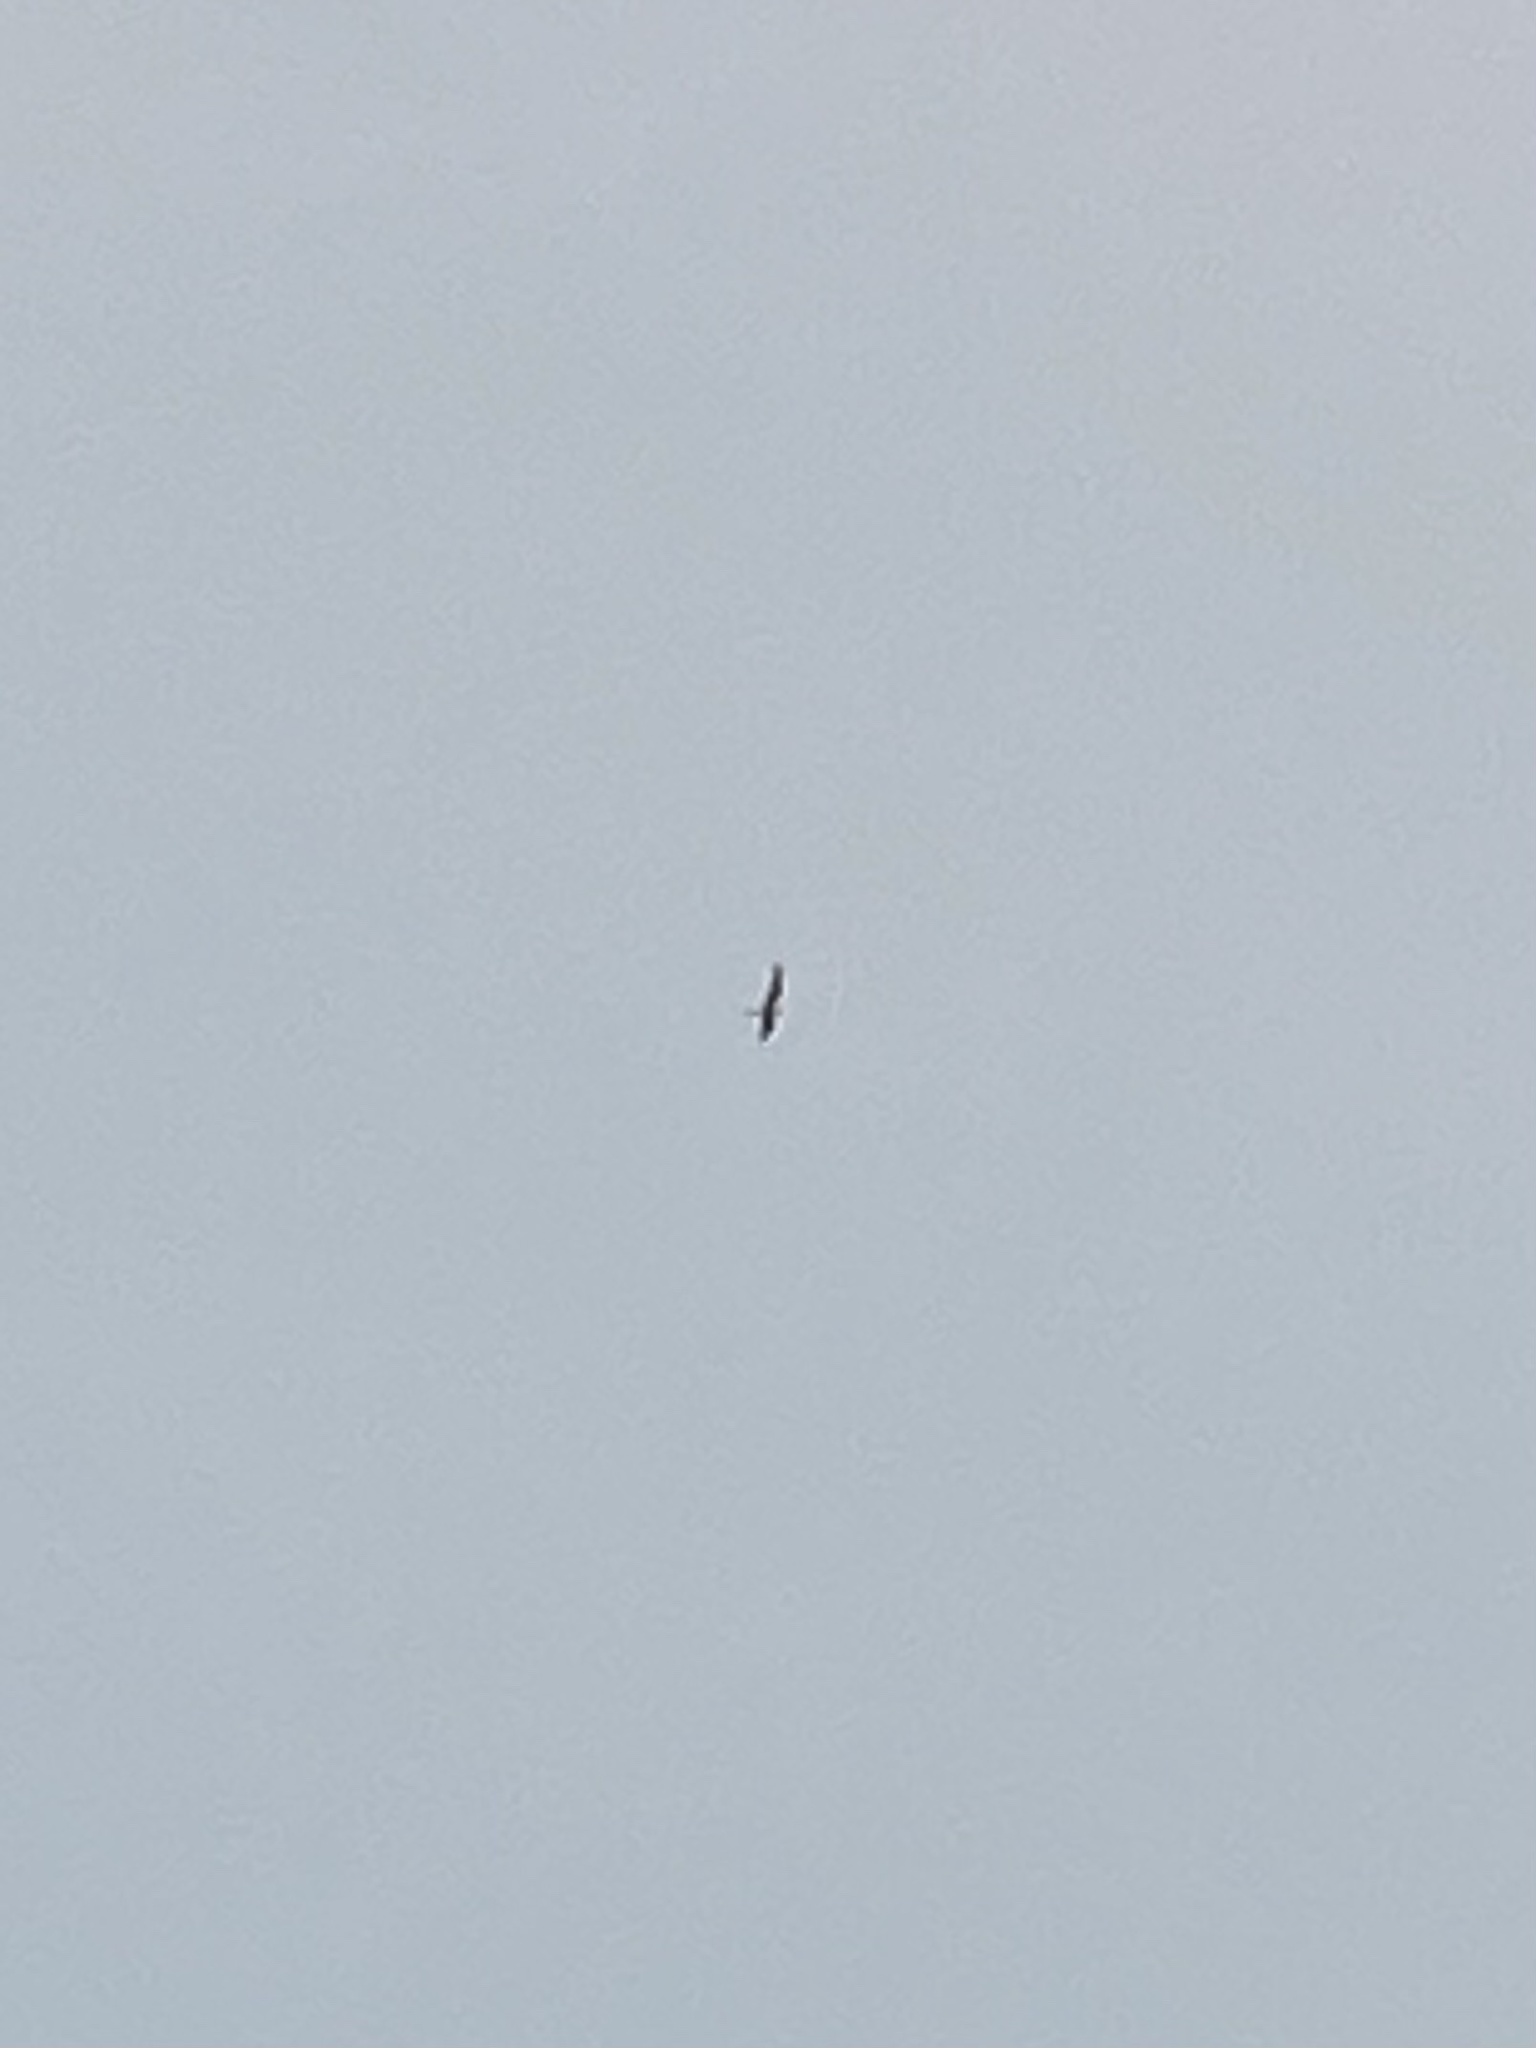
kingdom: Animalia
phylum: Chordata
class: Aves
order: Caprimulgiformes
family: Caprimulgidae
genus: Chordeiles
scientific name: Chordeiles minor
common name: Common nighthawk
